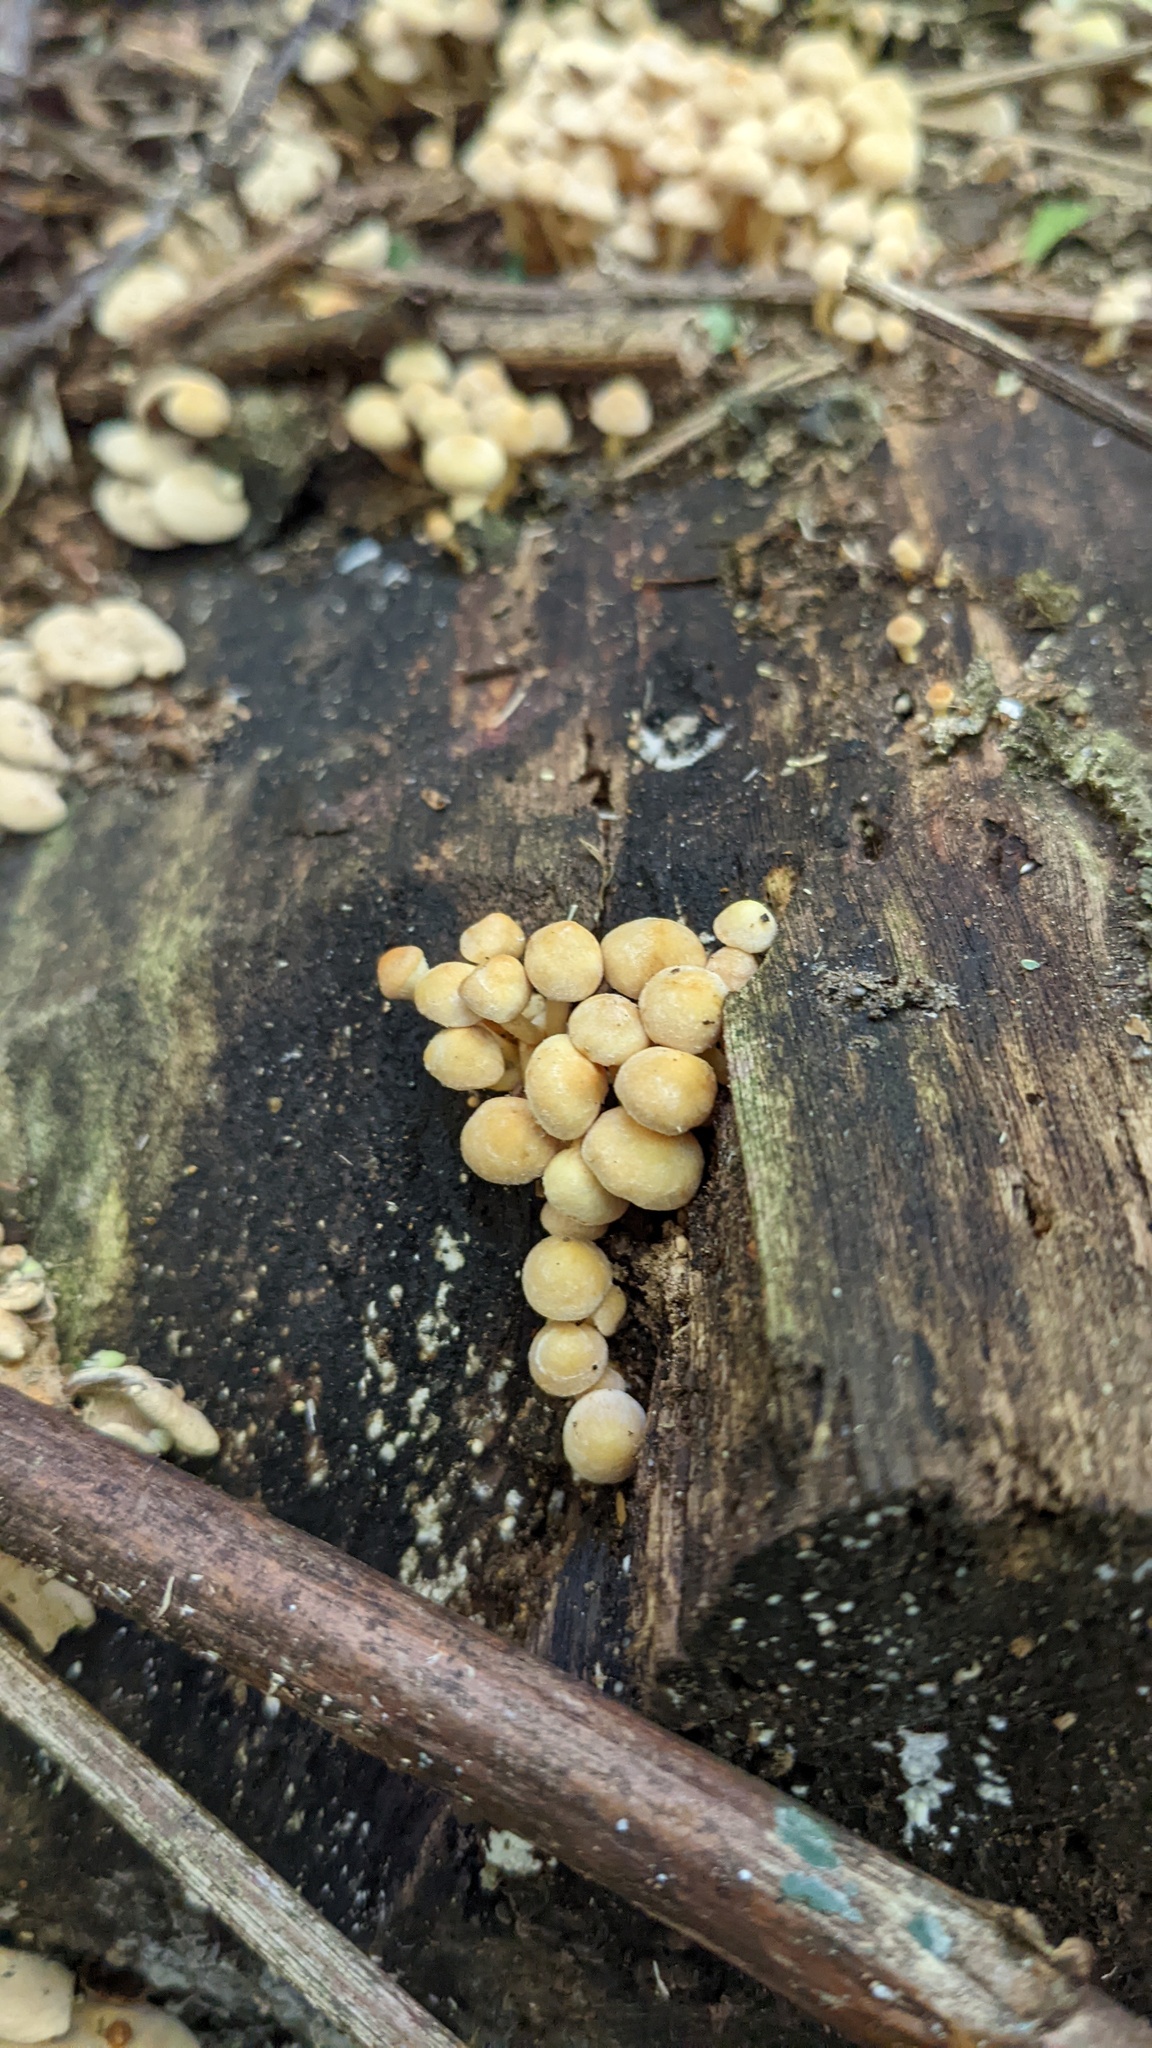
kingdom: Fungi
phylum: Basidiomycota
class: Agaricomycetes
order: Agaricales
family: Strophariaceae
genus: Hypholoma
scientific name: Hypholoma fasciculare
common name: Sulphur tuft
